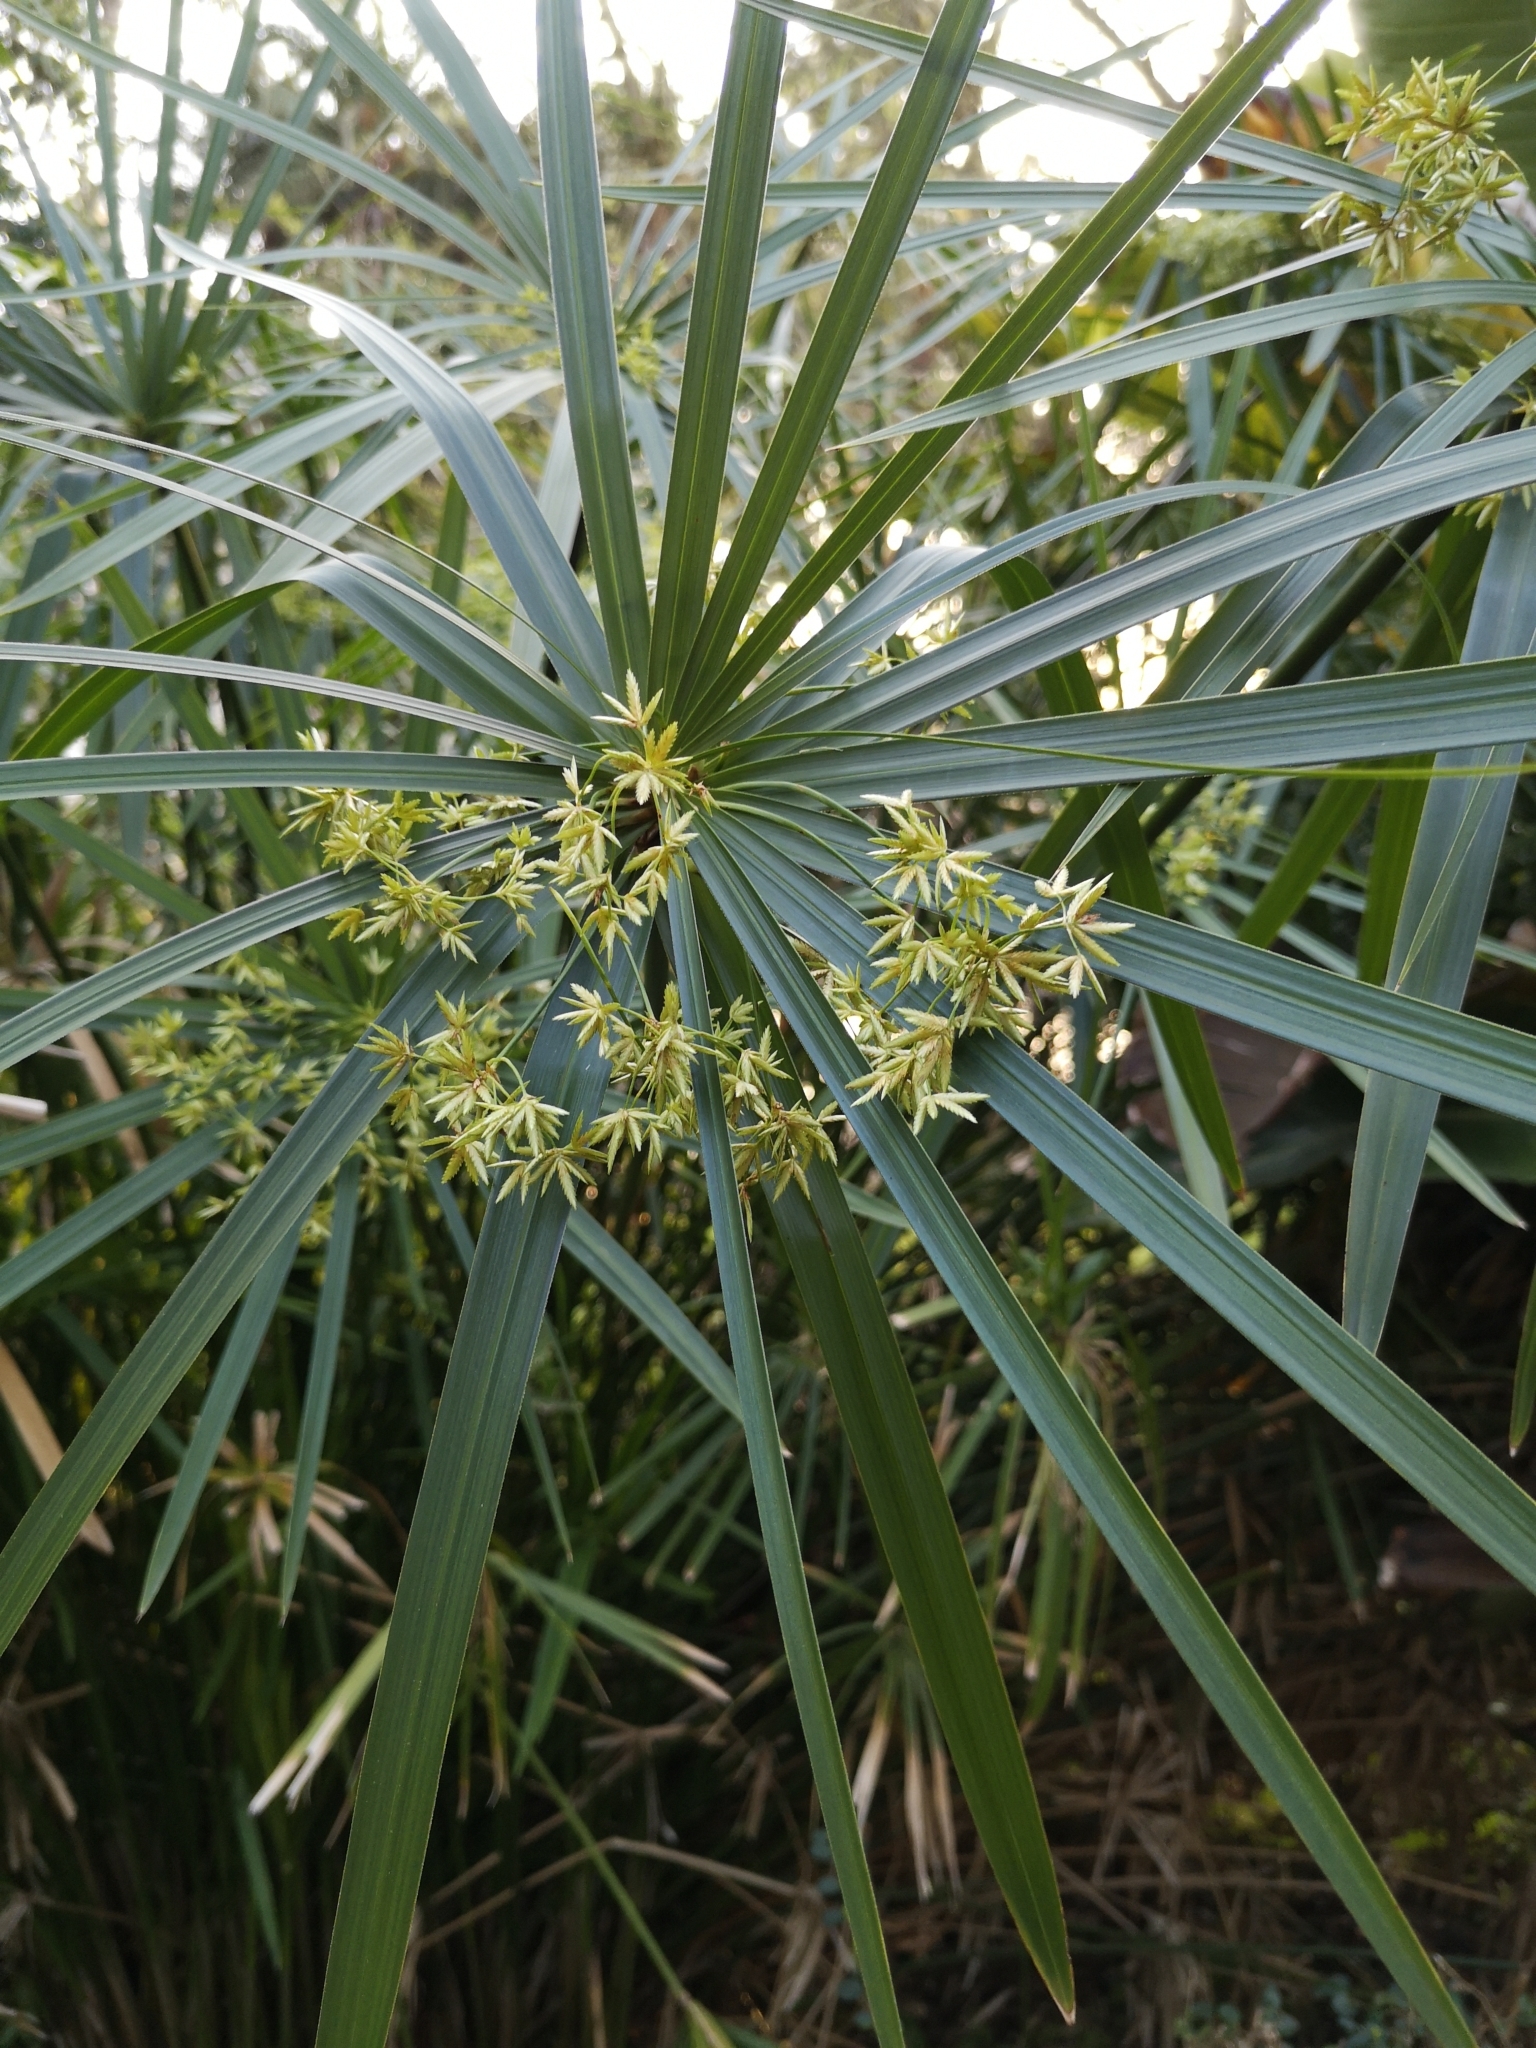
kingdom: Plantae
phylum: Tracheophyta
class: Liliopsida
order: Poales
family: Cyperaceae
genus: Cyperus
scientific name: Cyperus alternifolius
